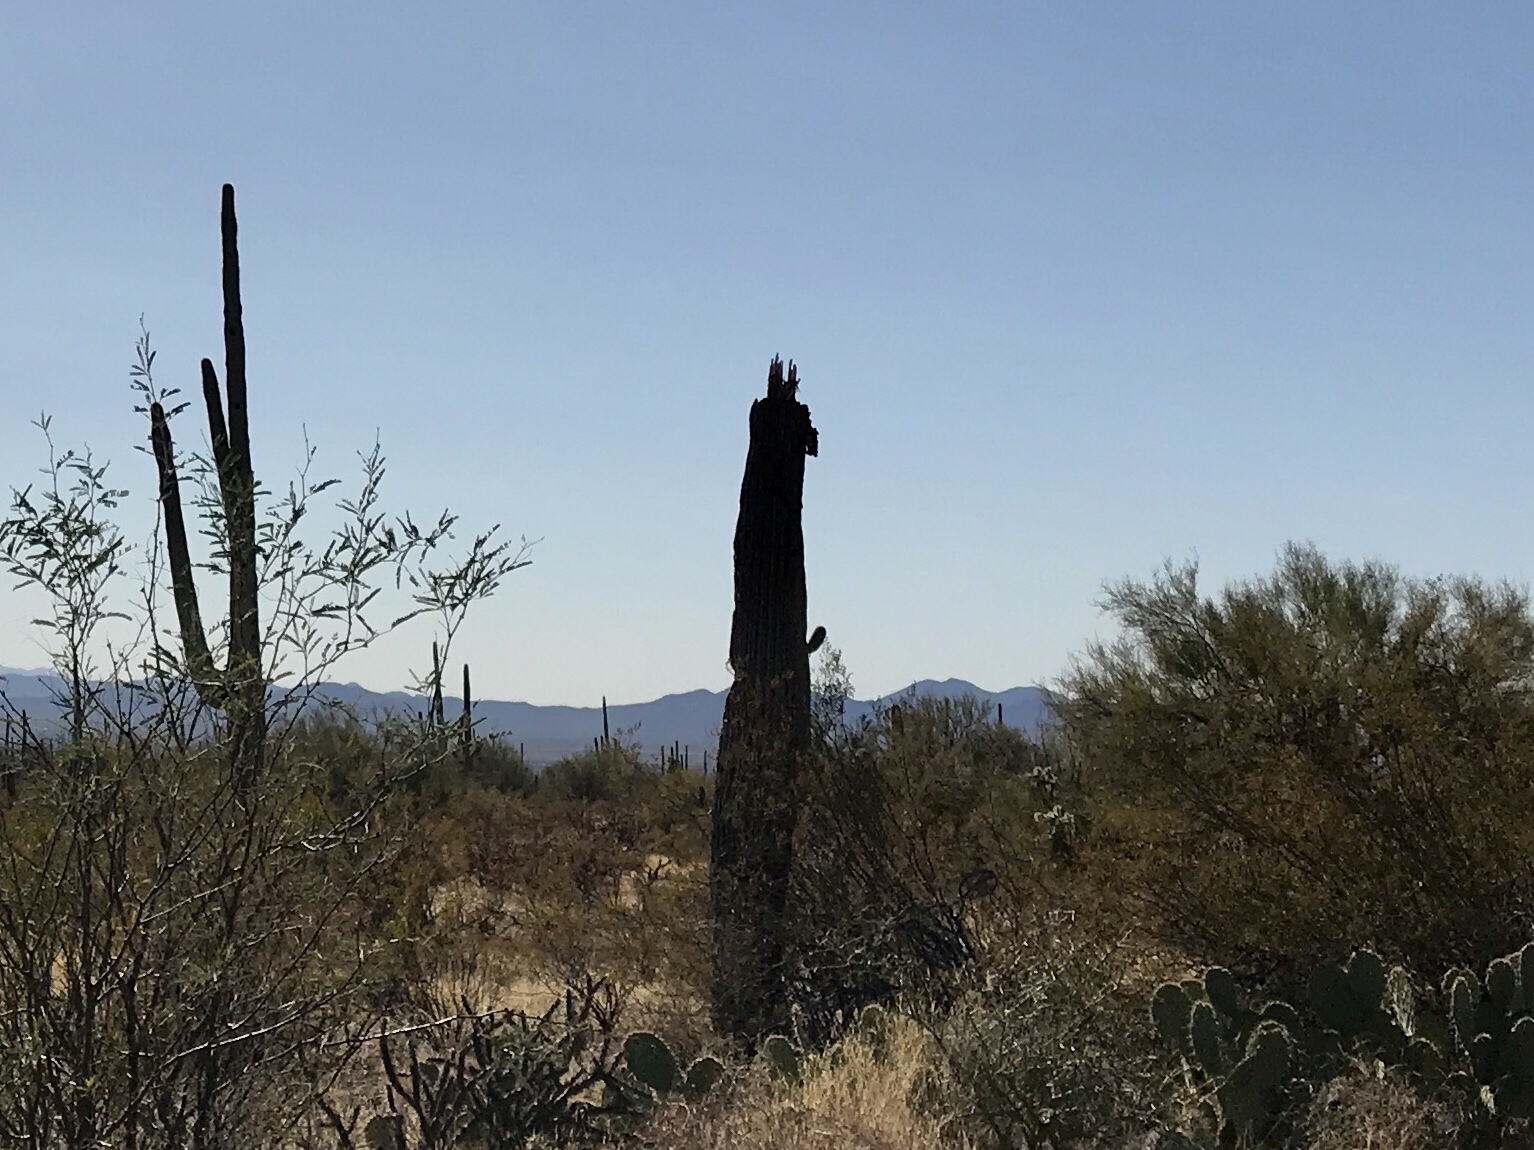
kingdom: Plantae
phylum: Tracheophyta
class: Magnoliopsida
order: Caryophyllales
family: Cactaceae
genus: Carnegiea
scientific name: Carnegiea gigantea
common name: Saguaro
